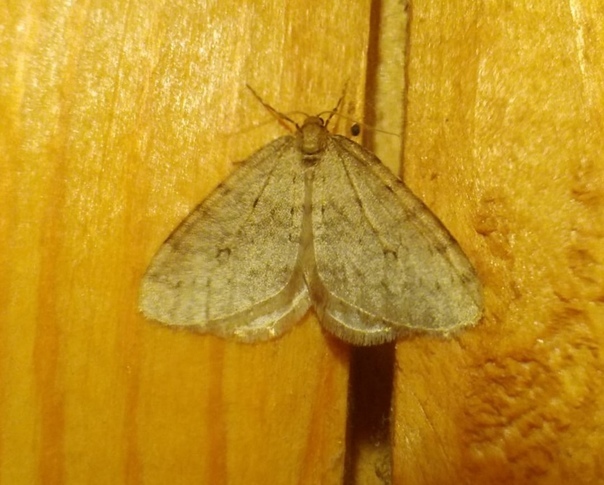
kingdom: Animalia
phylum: Arthropoda
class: Insecta
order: Lepidoptera
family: Geometridae
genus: Operophtera
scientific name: Operophtera brumata
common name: Winter moth
